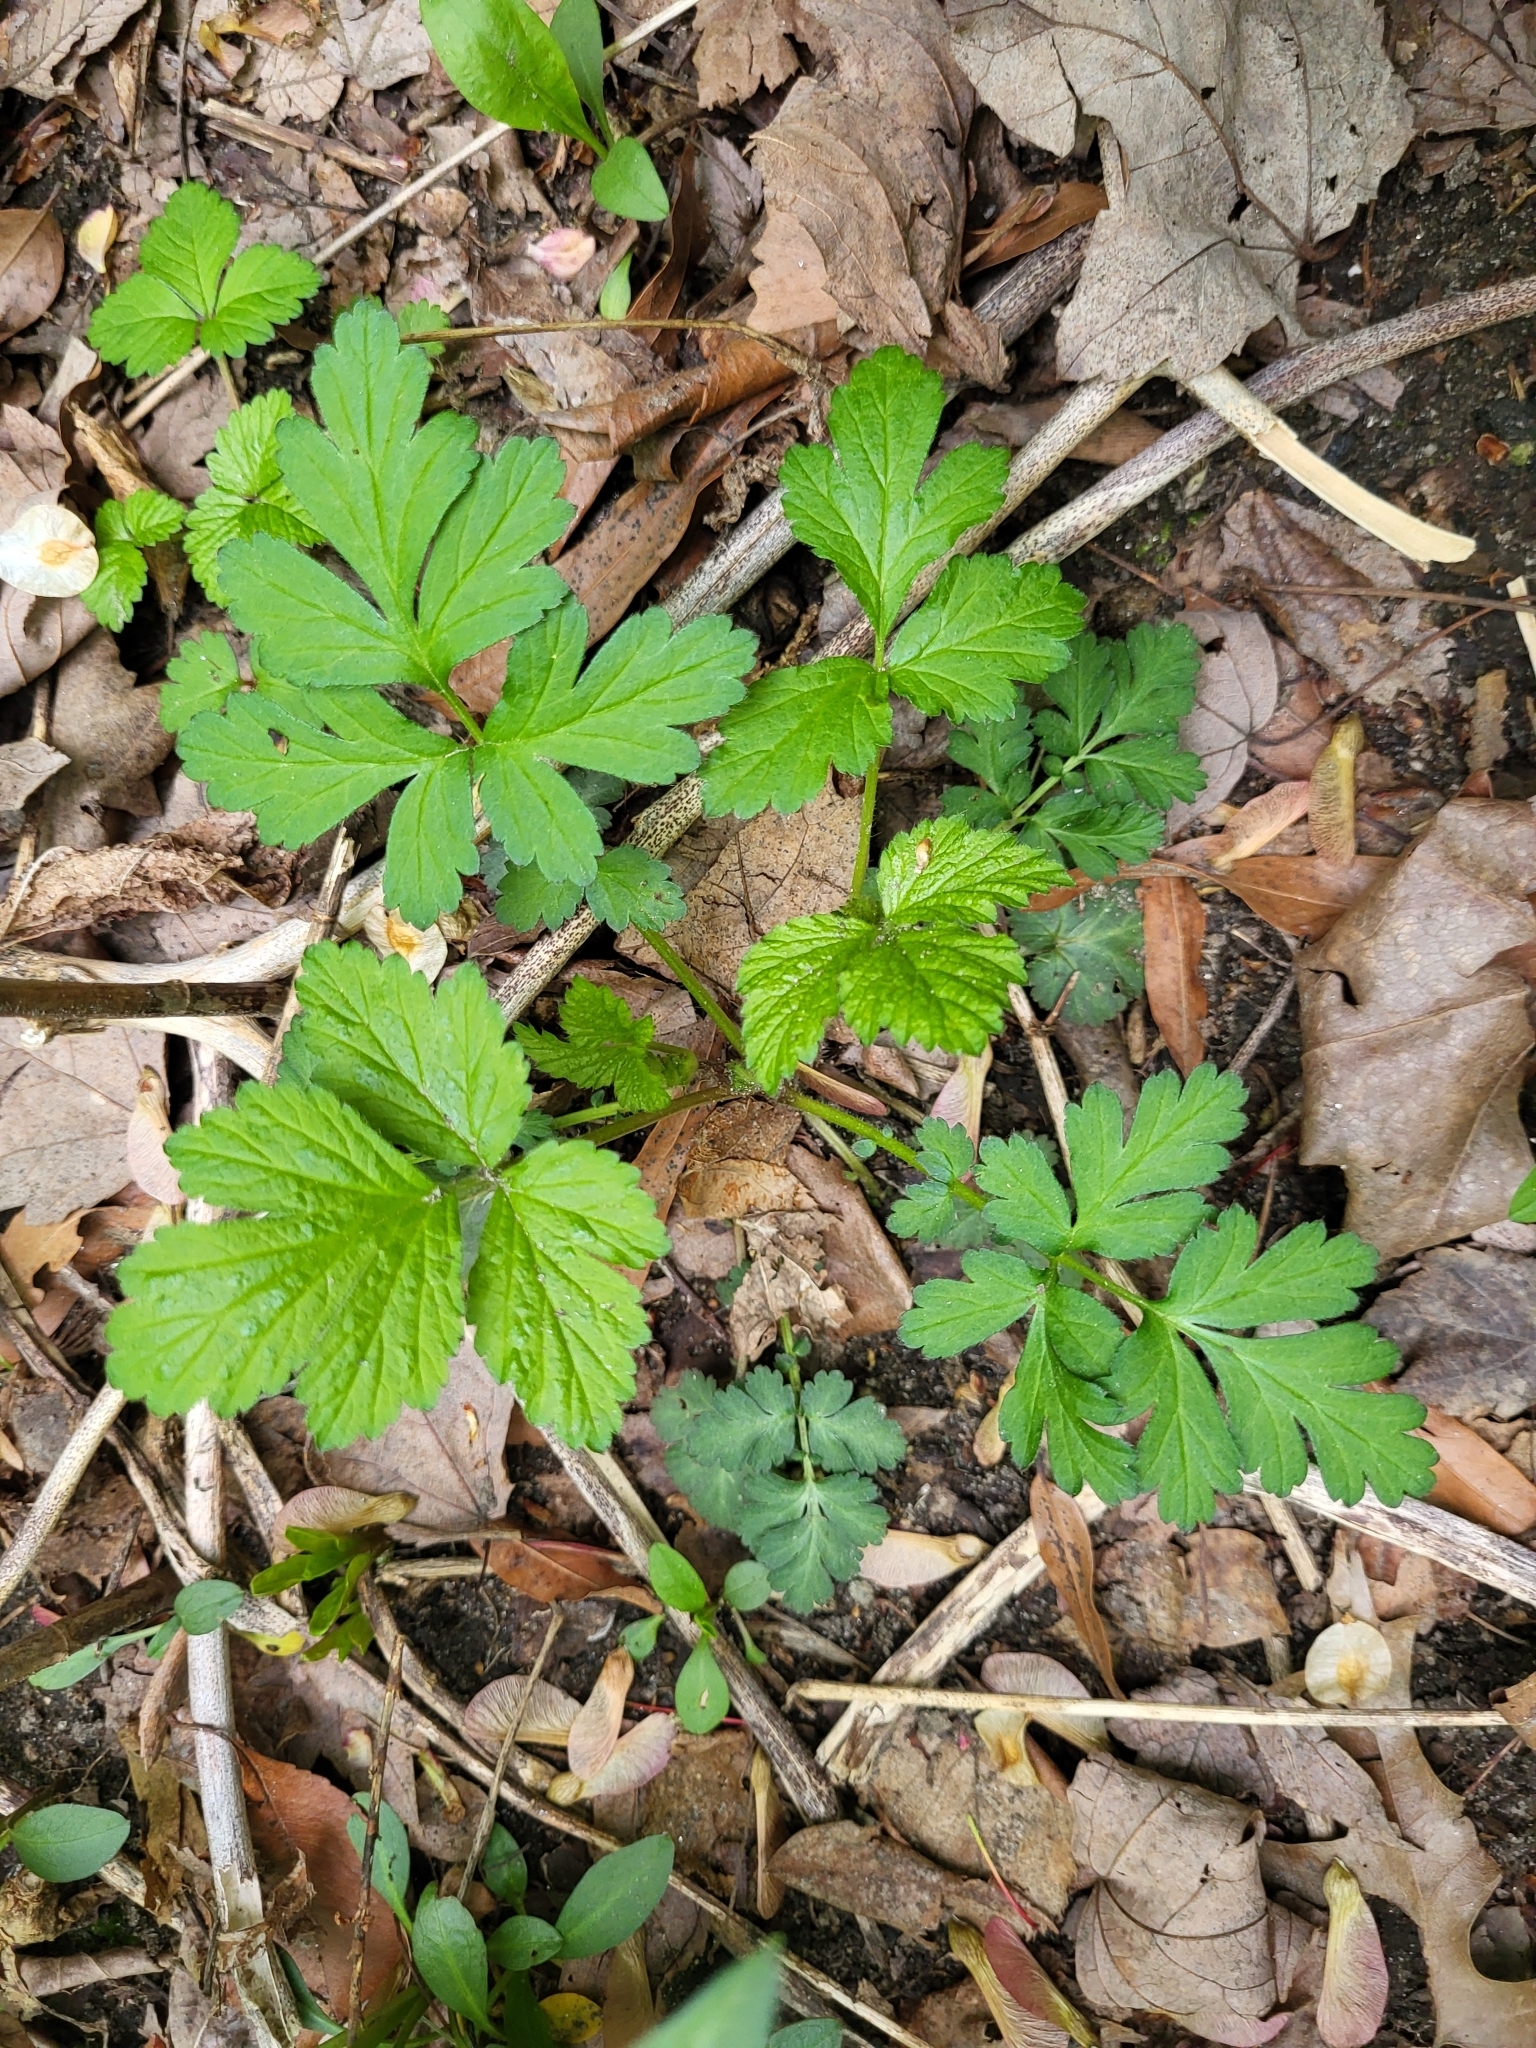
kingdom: Plantae
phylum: Tracheophyta
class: Magnoliopsida
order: Rosales
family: Rosaceae
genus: Geum
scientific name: Geum canadense
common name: White avens
